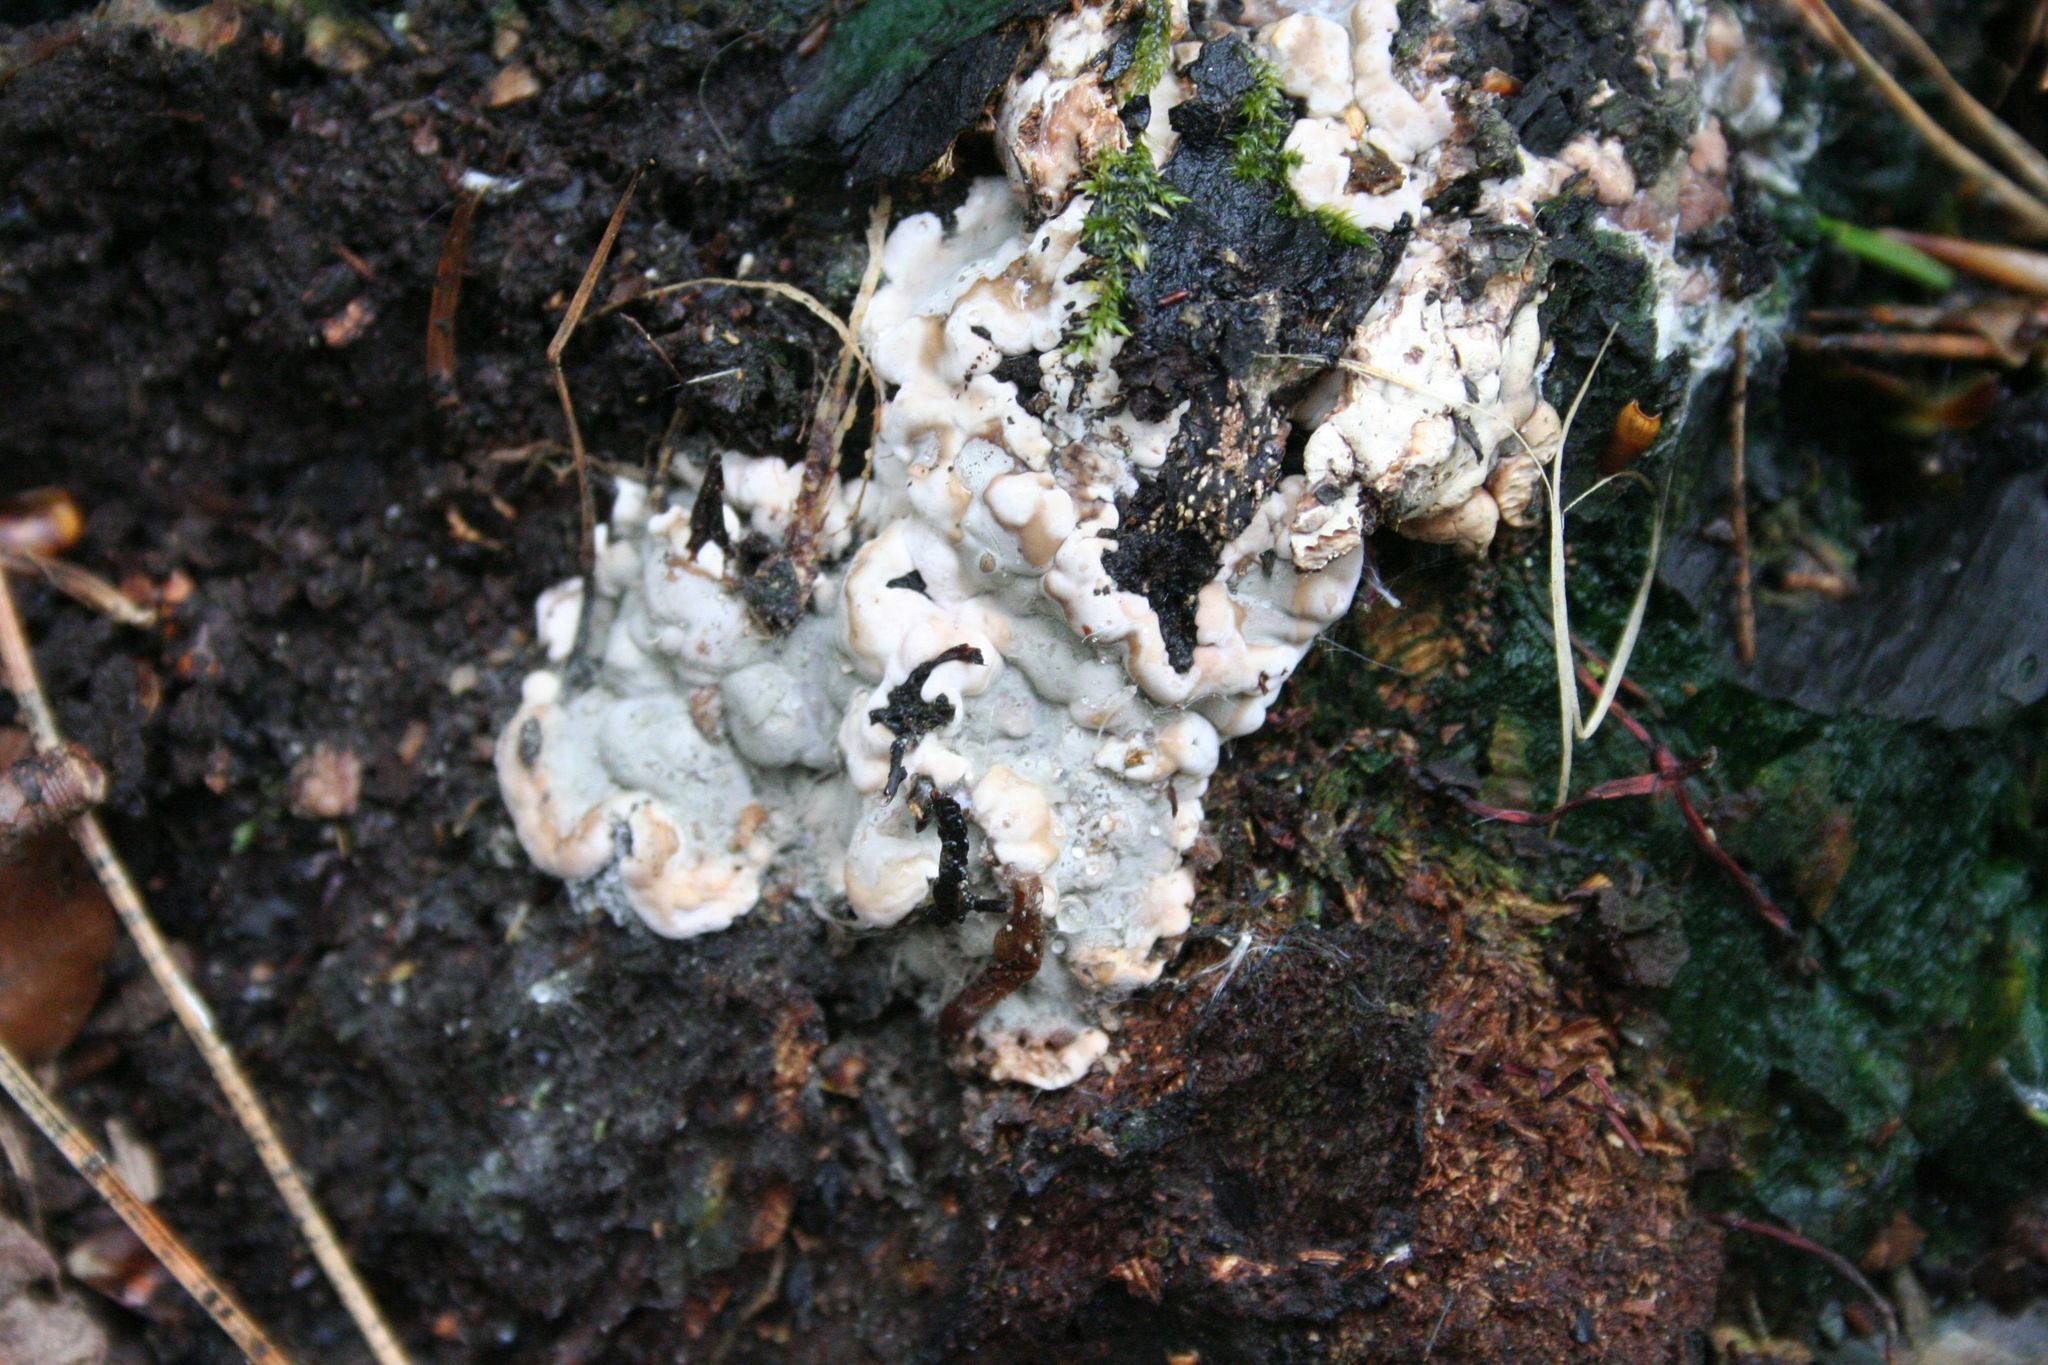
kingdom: Fungi
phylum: Ascomycota
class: Sordariomycetes
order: Xylariales
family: Xylariaceae
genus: Kretzschmaria
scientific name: Kretzschmaria deusta
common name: Brittle cinder
